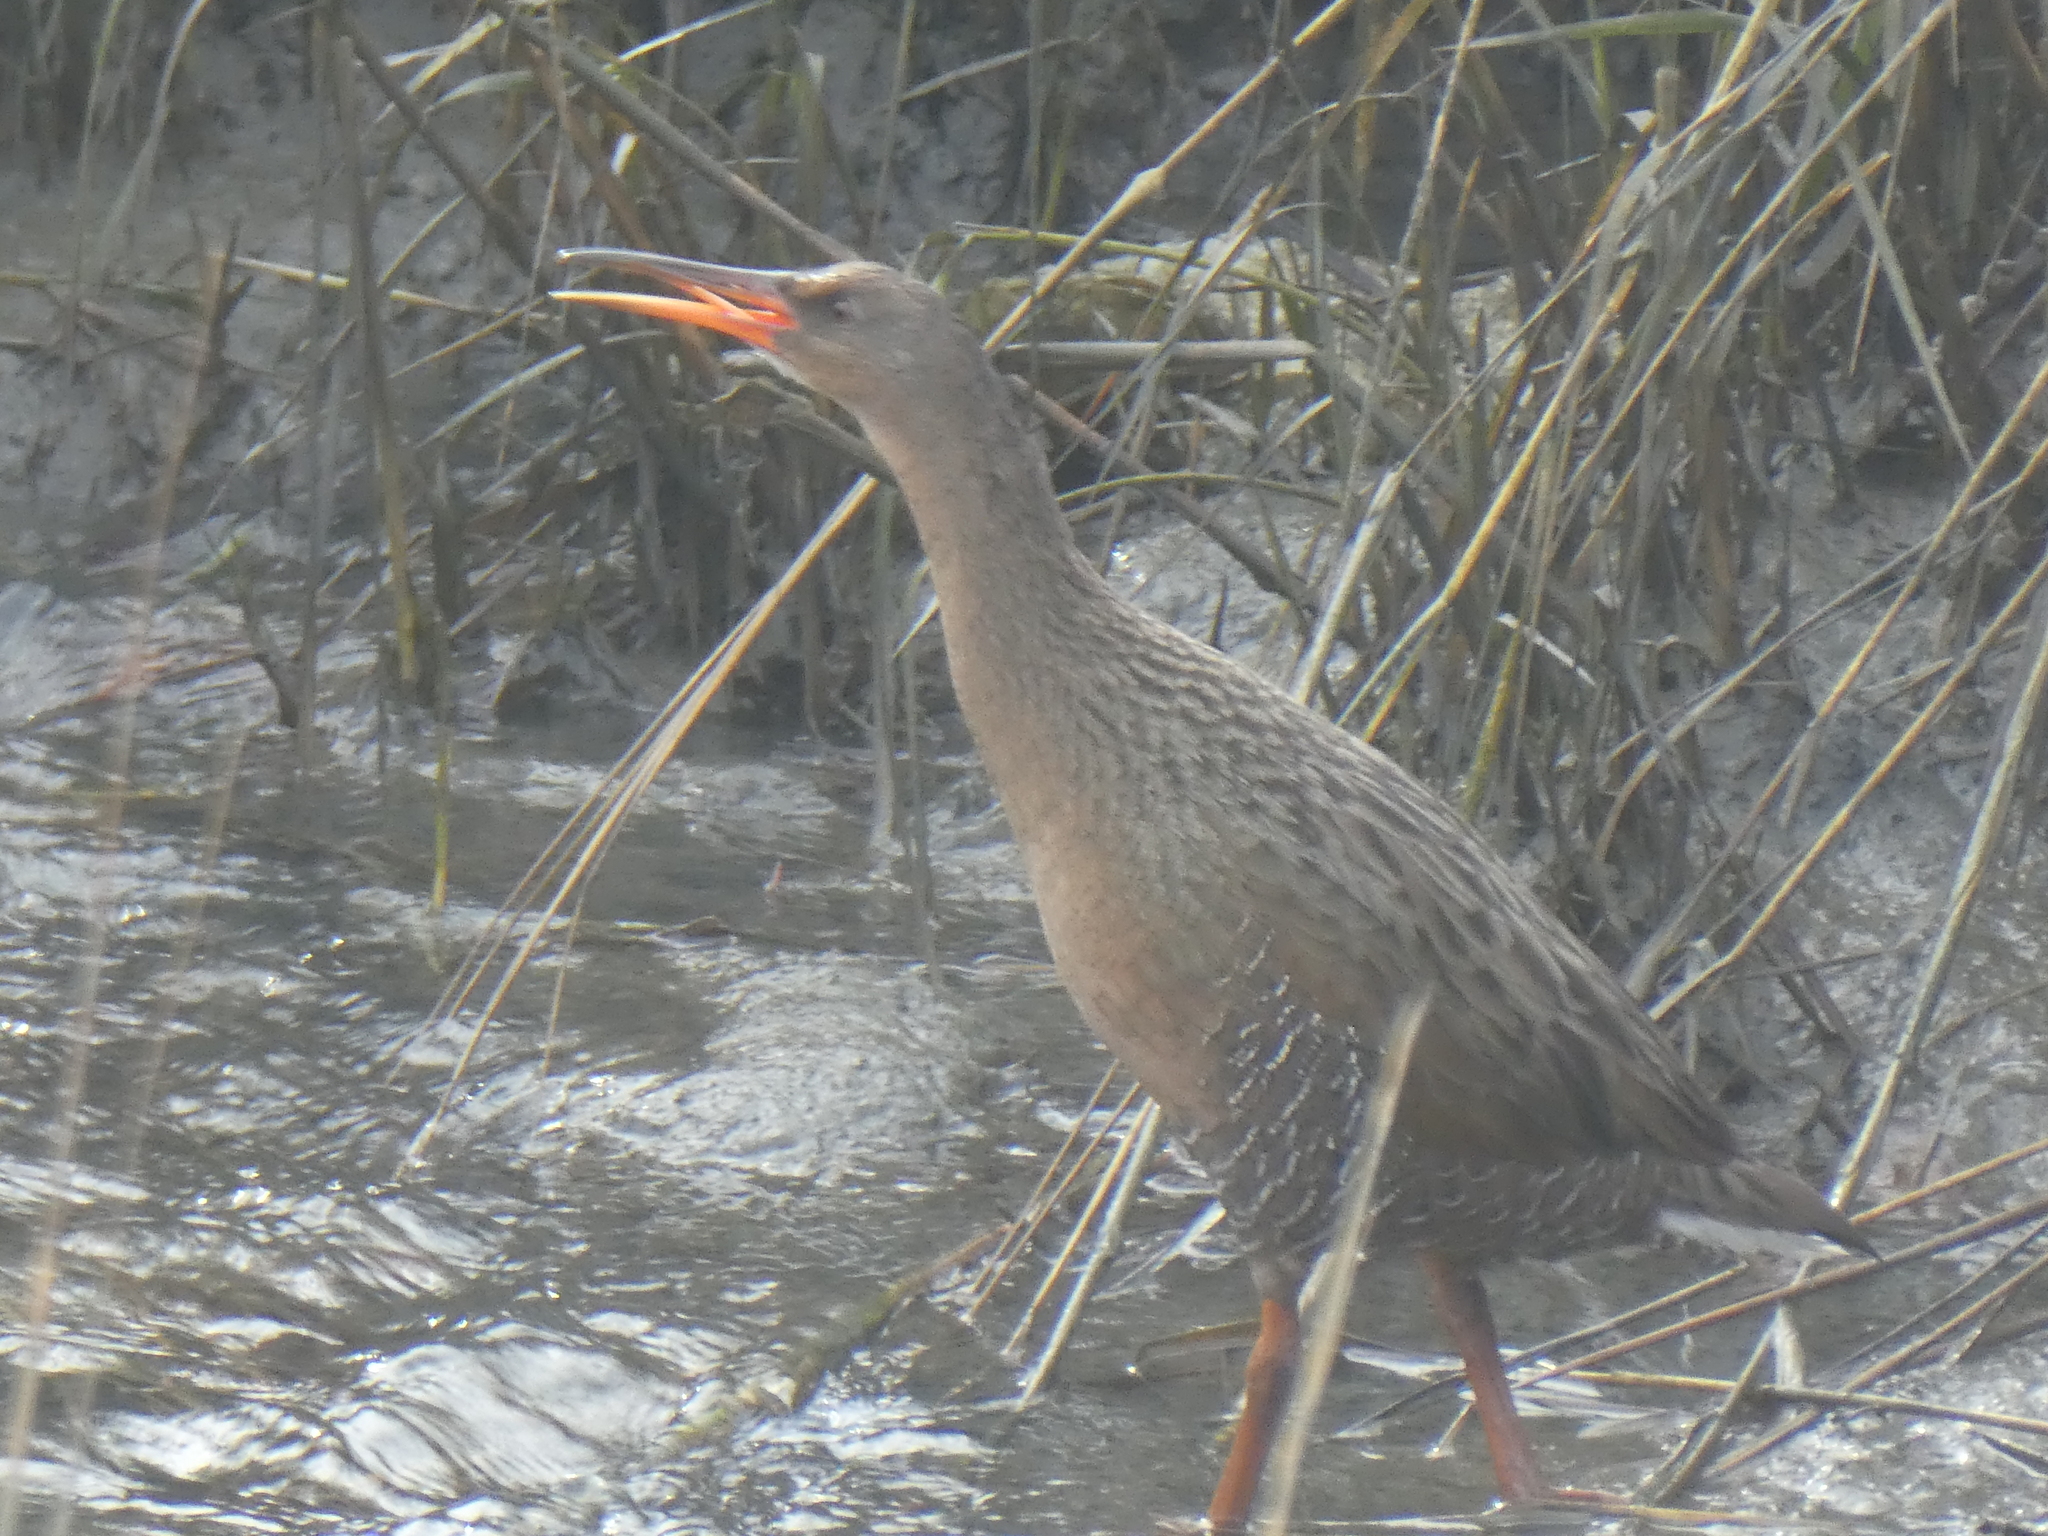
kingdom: Animalia
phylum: Chordata
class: Aves
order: Gruiformes
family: Rallidae
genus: Rallus
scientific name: Rallus obsoletus
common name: Ridgway's rail
